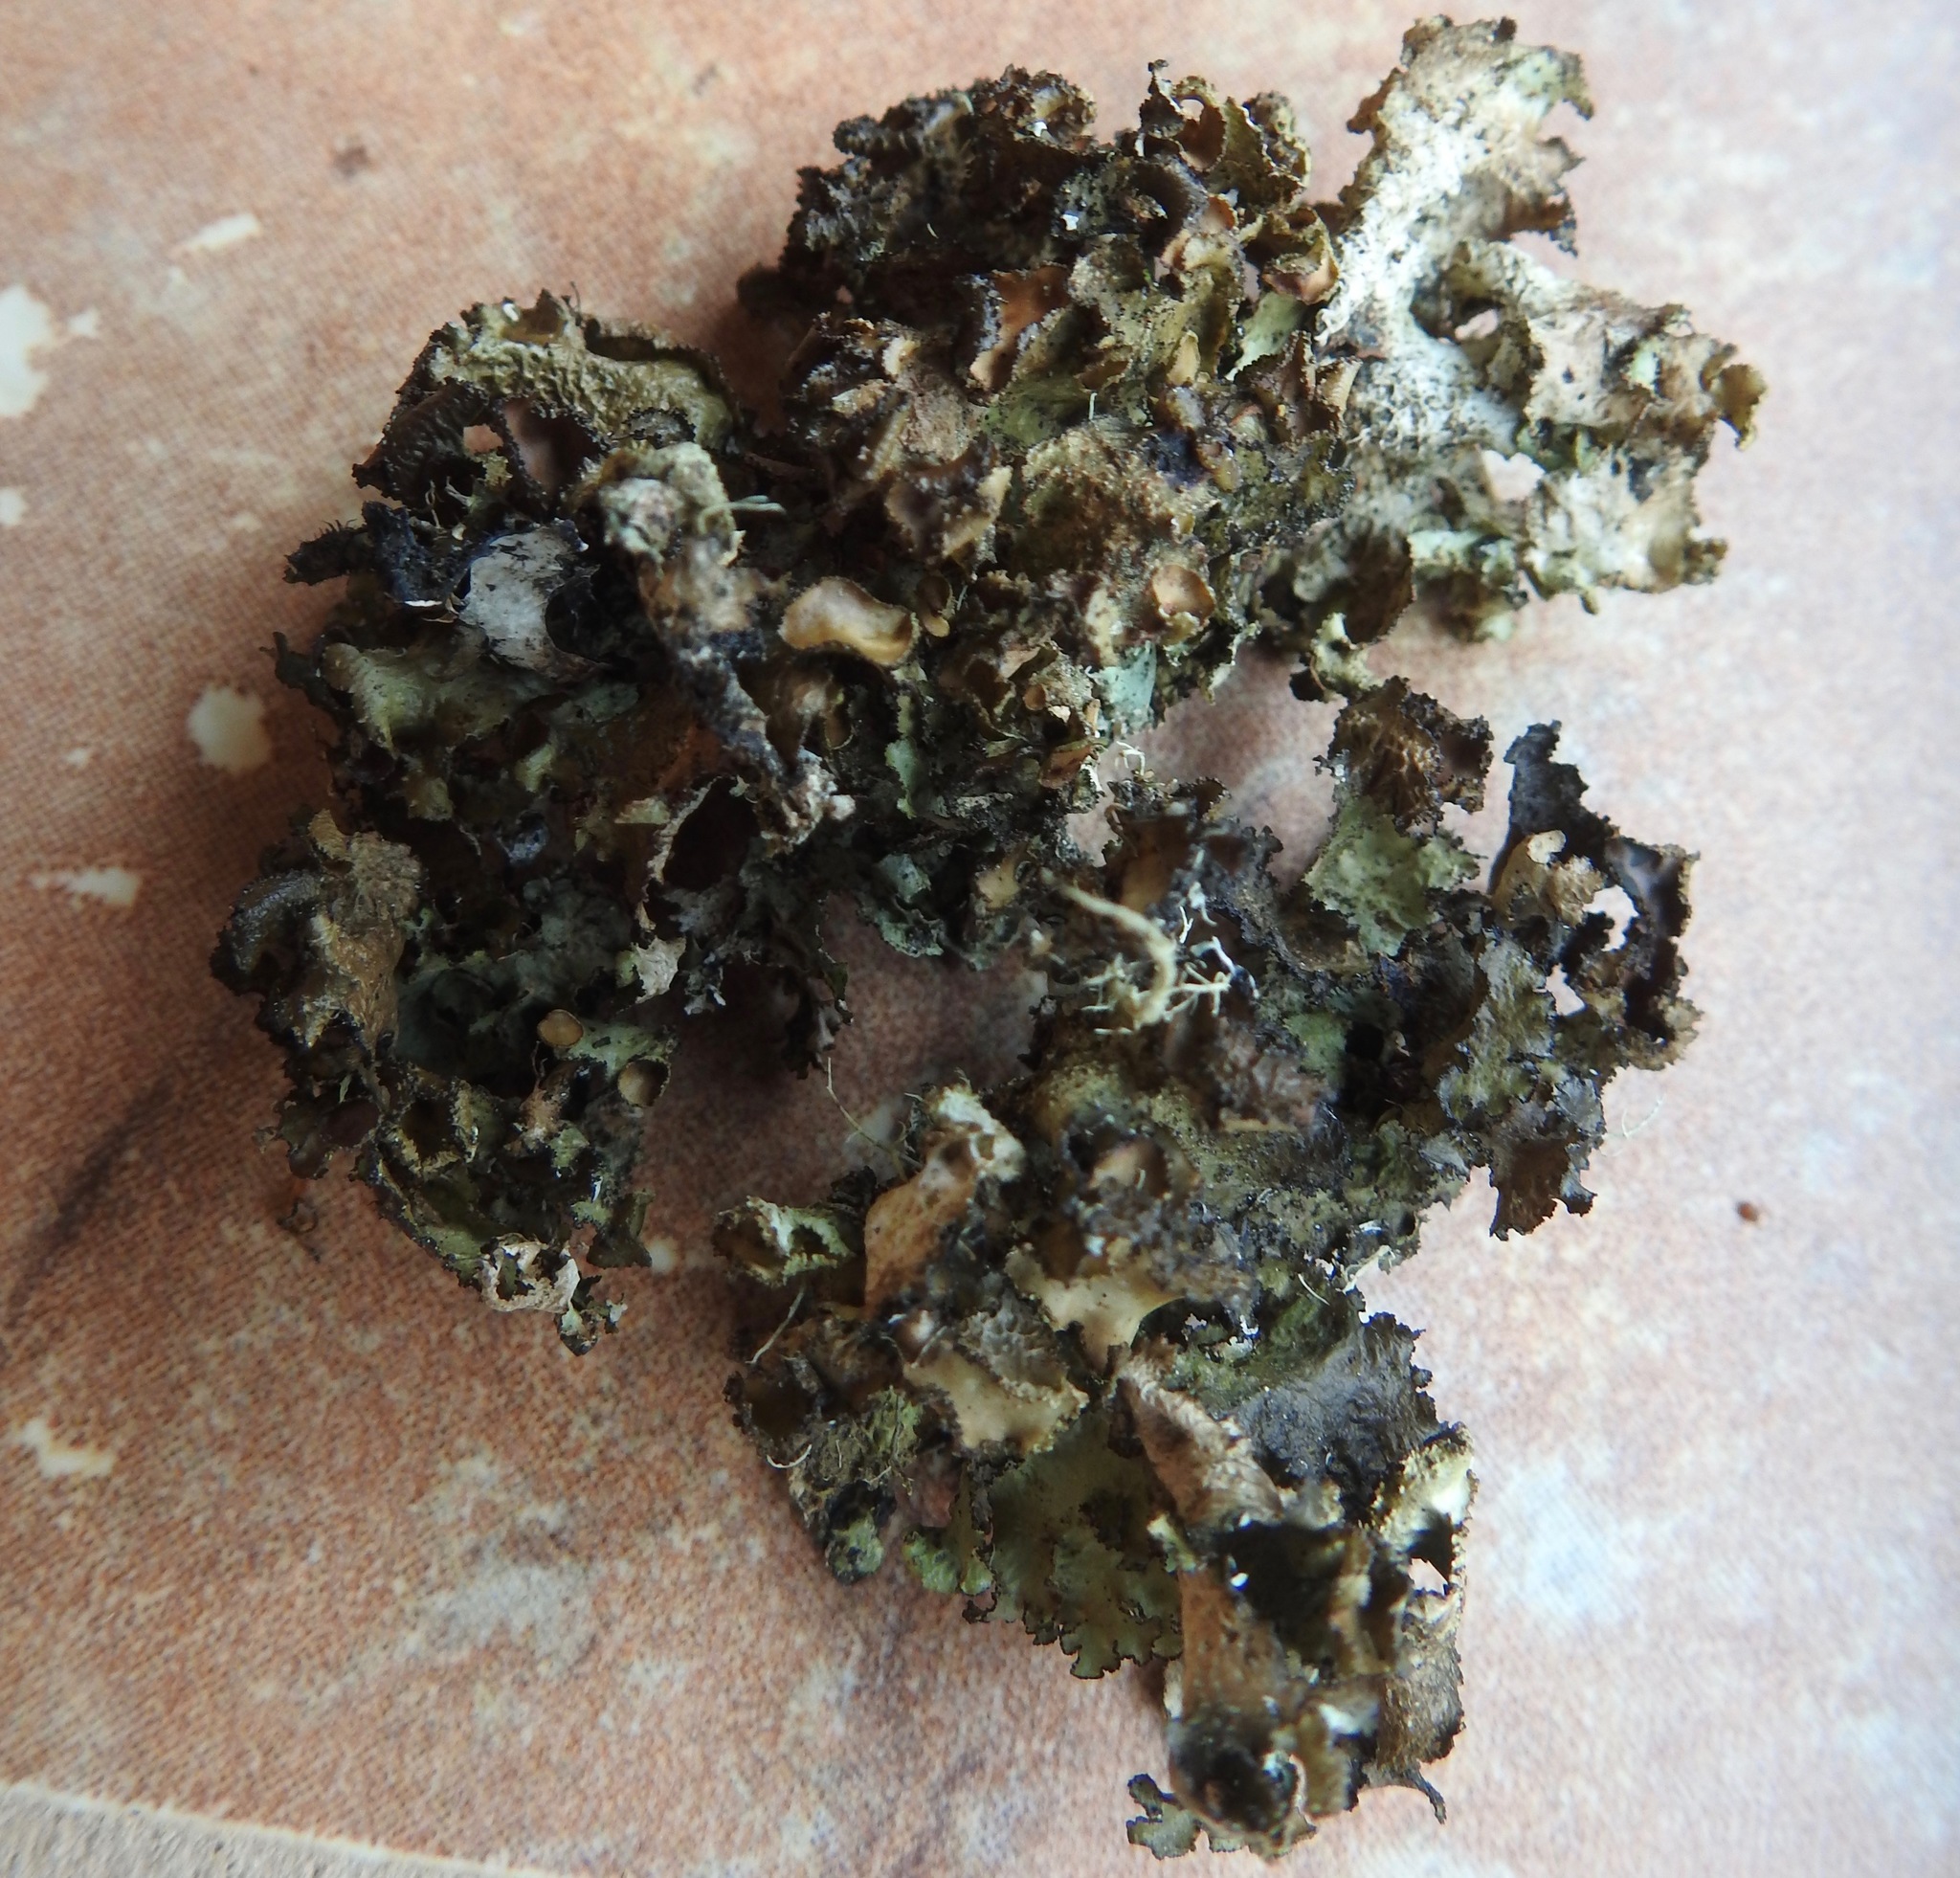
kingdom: Fungi
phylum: Ascomycota
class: Lecanoromycetes
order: Lecanorales
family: Parmeliaceae
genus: Nephromopsis
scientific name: Nephromopsis orbata
